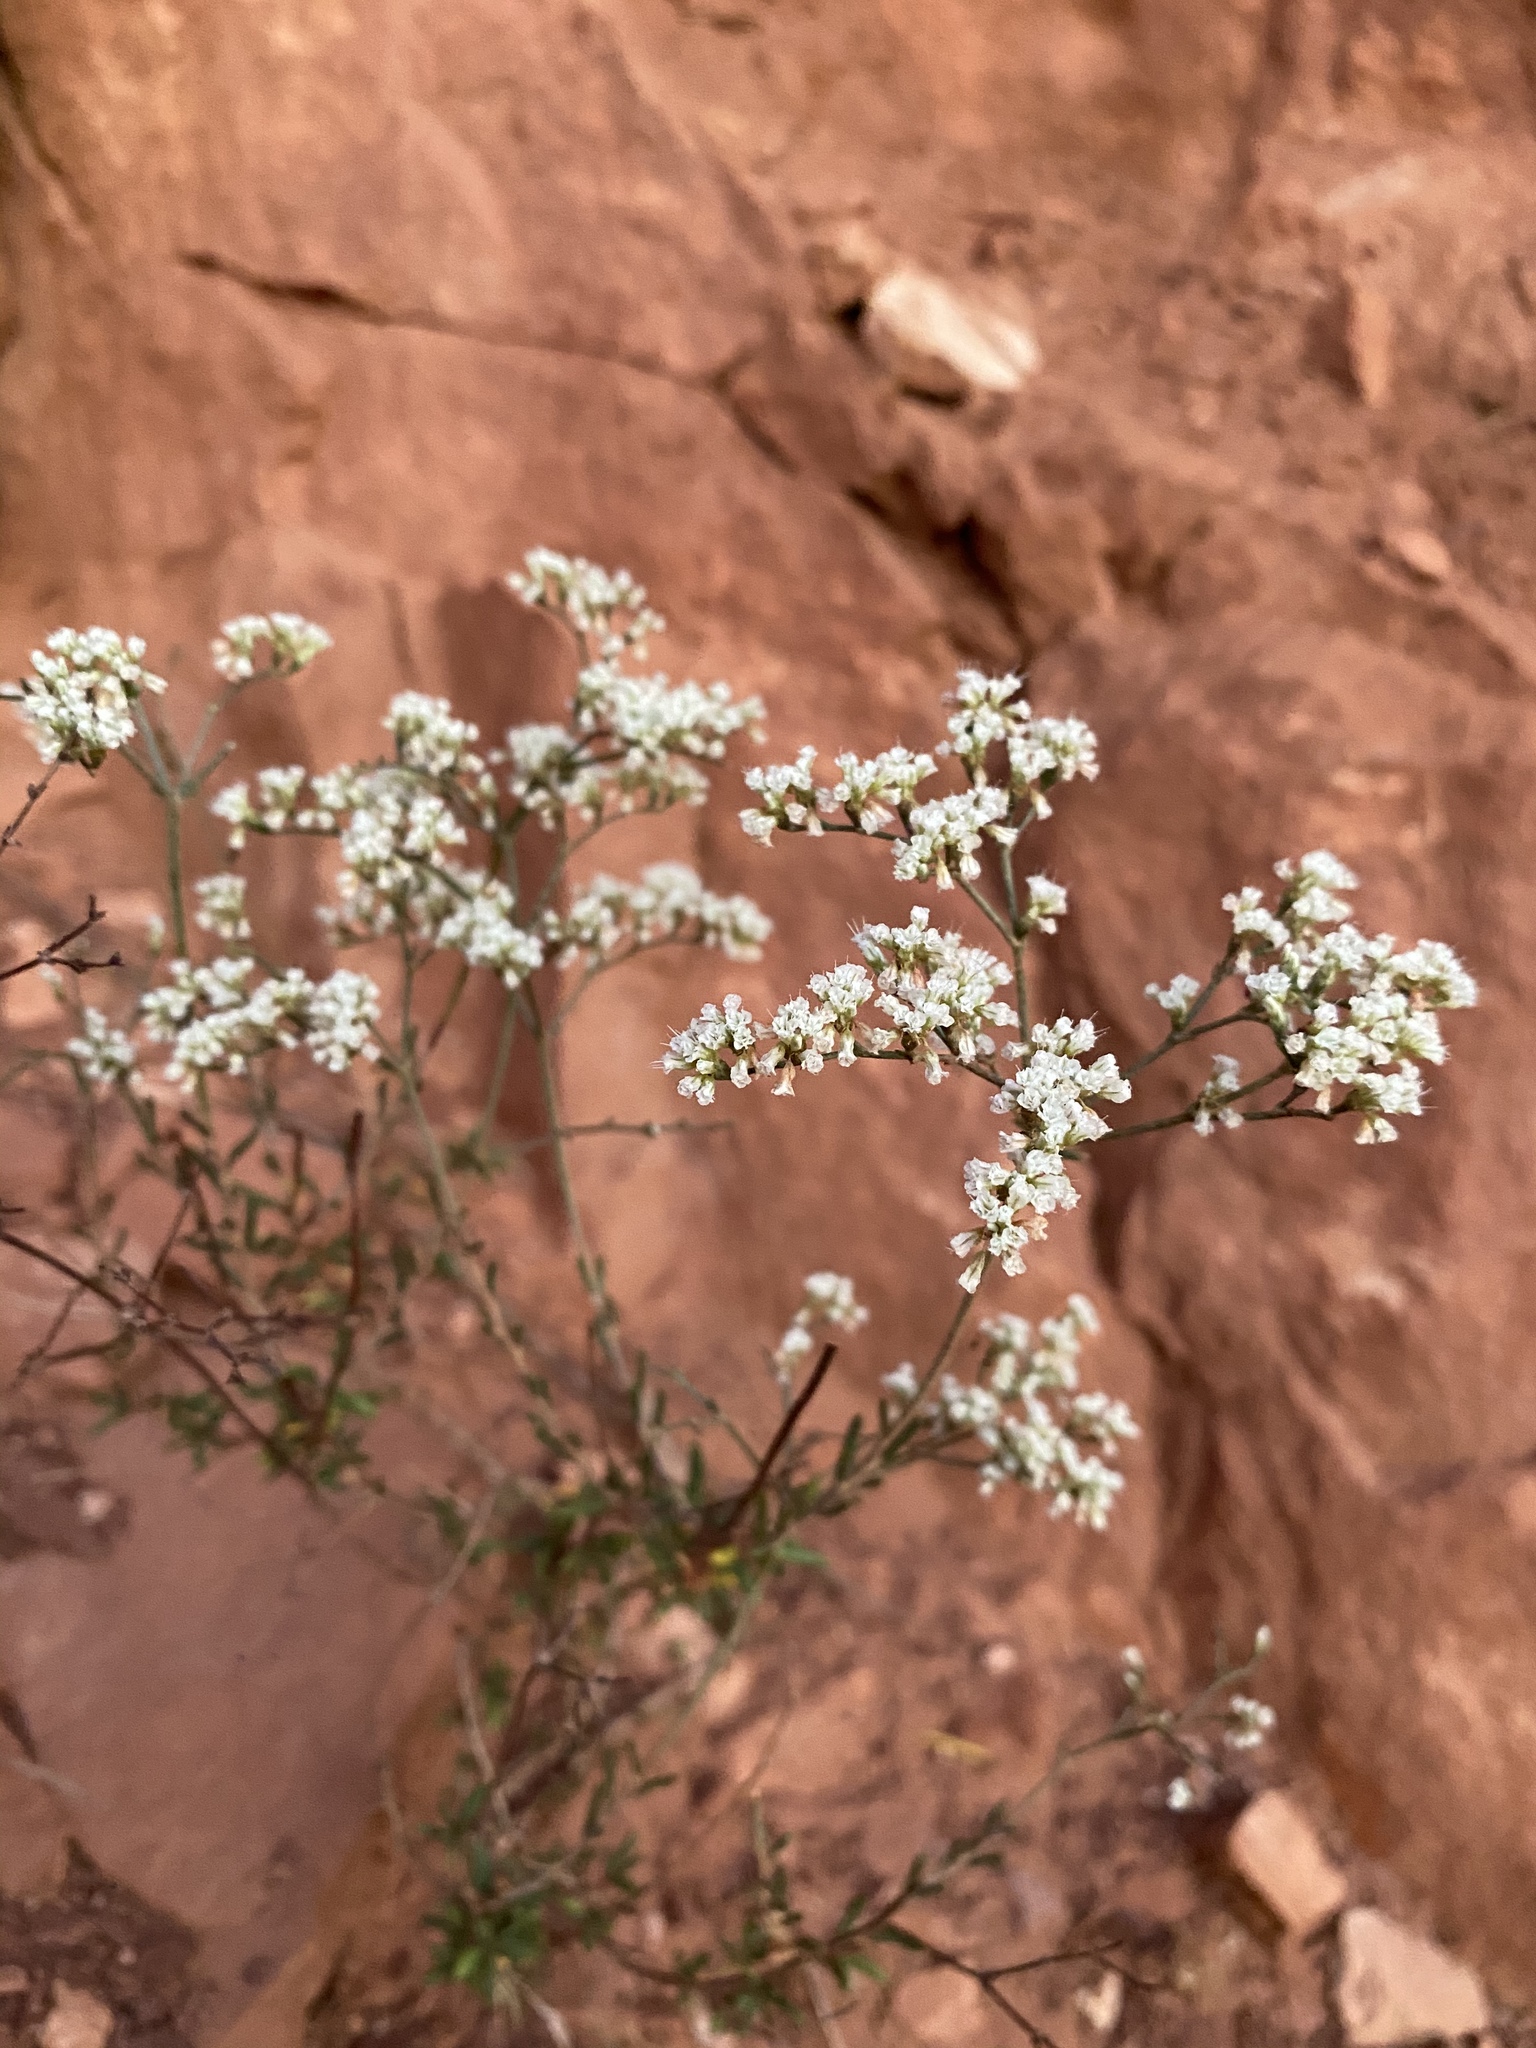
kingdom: Plantae
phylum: Tracheophyta
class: Magnoliopsida
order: Caryophyllales
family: Polygonaceae
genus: Eriogonum
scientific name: Eriogonum microtheca
